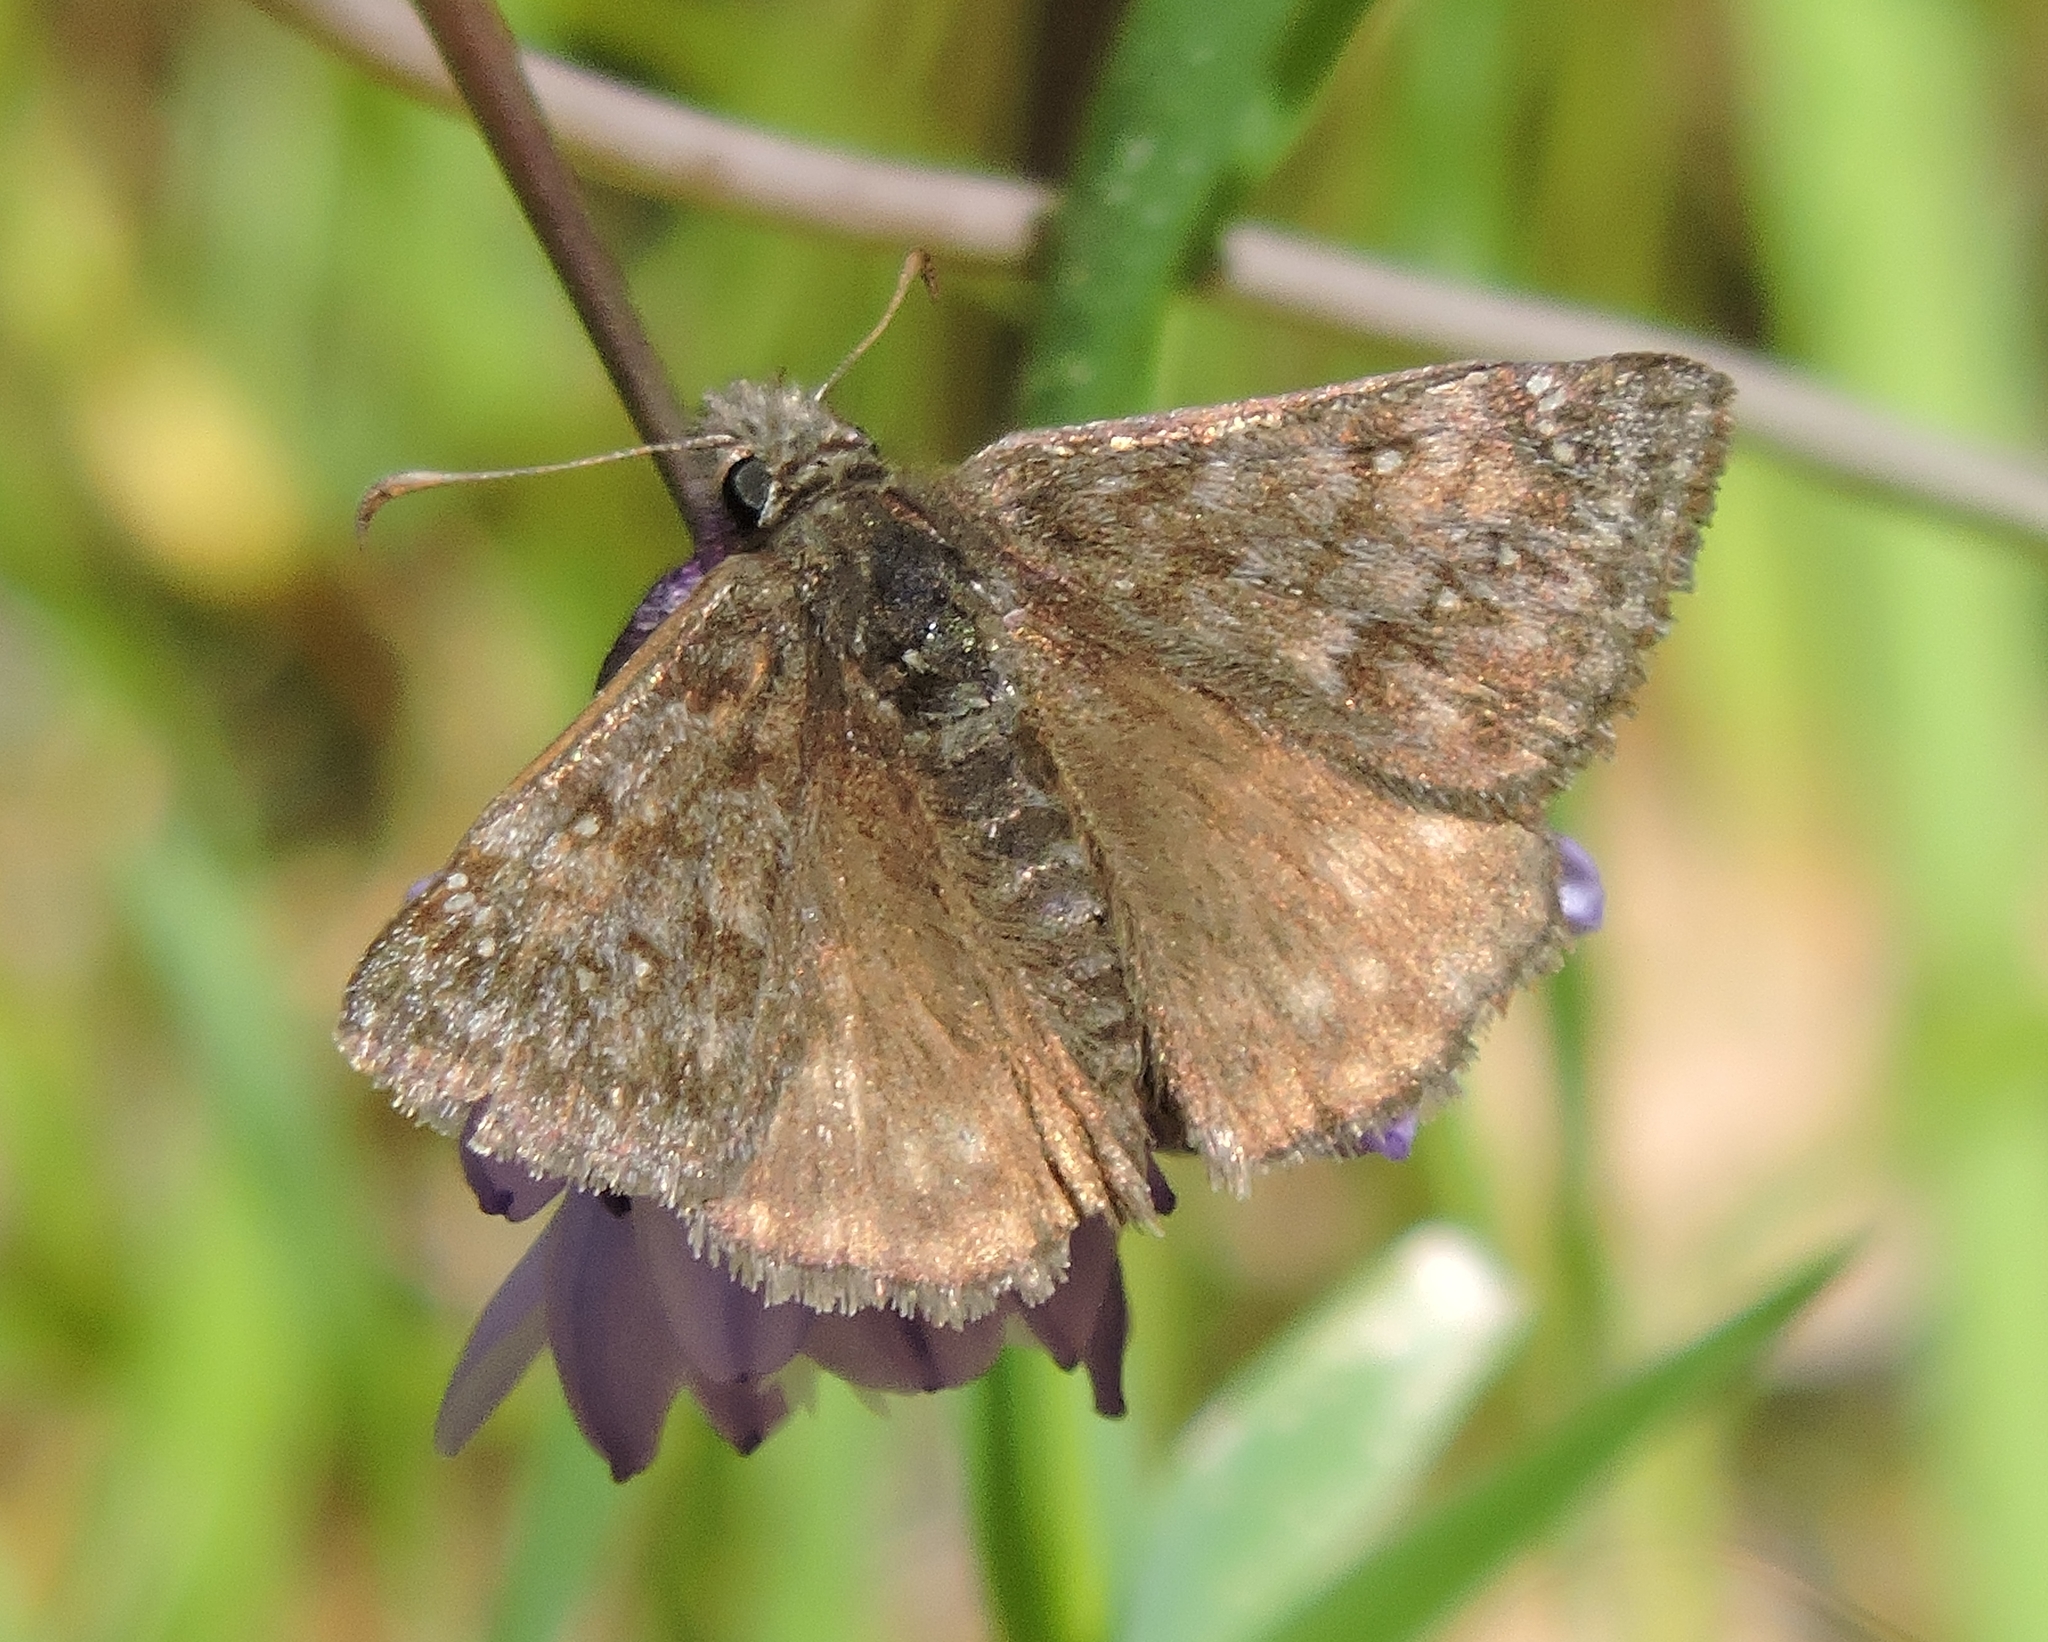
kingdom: Animalia
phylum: Arthropoda
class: Insecta
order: Lepidoptera
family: Hesperiidae
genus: Erynnis
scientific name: Erynnis propertius
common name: Propertius duskywing
